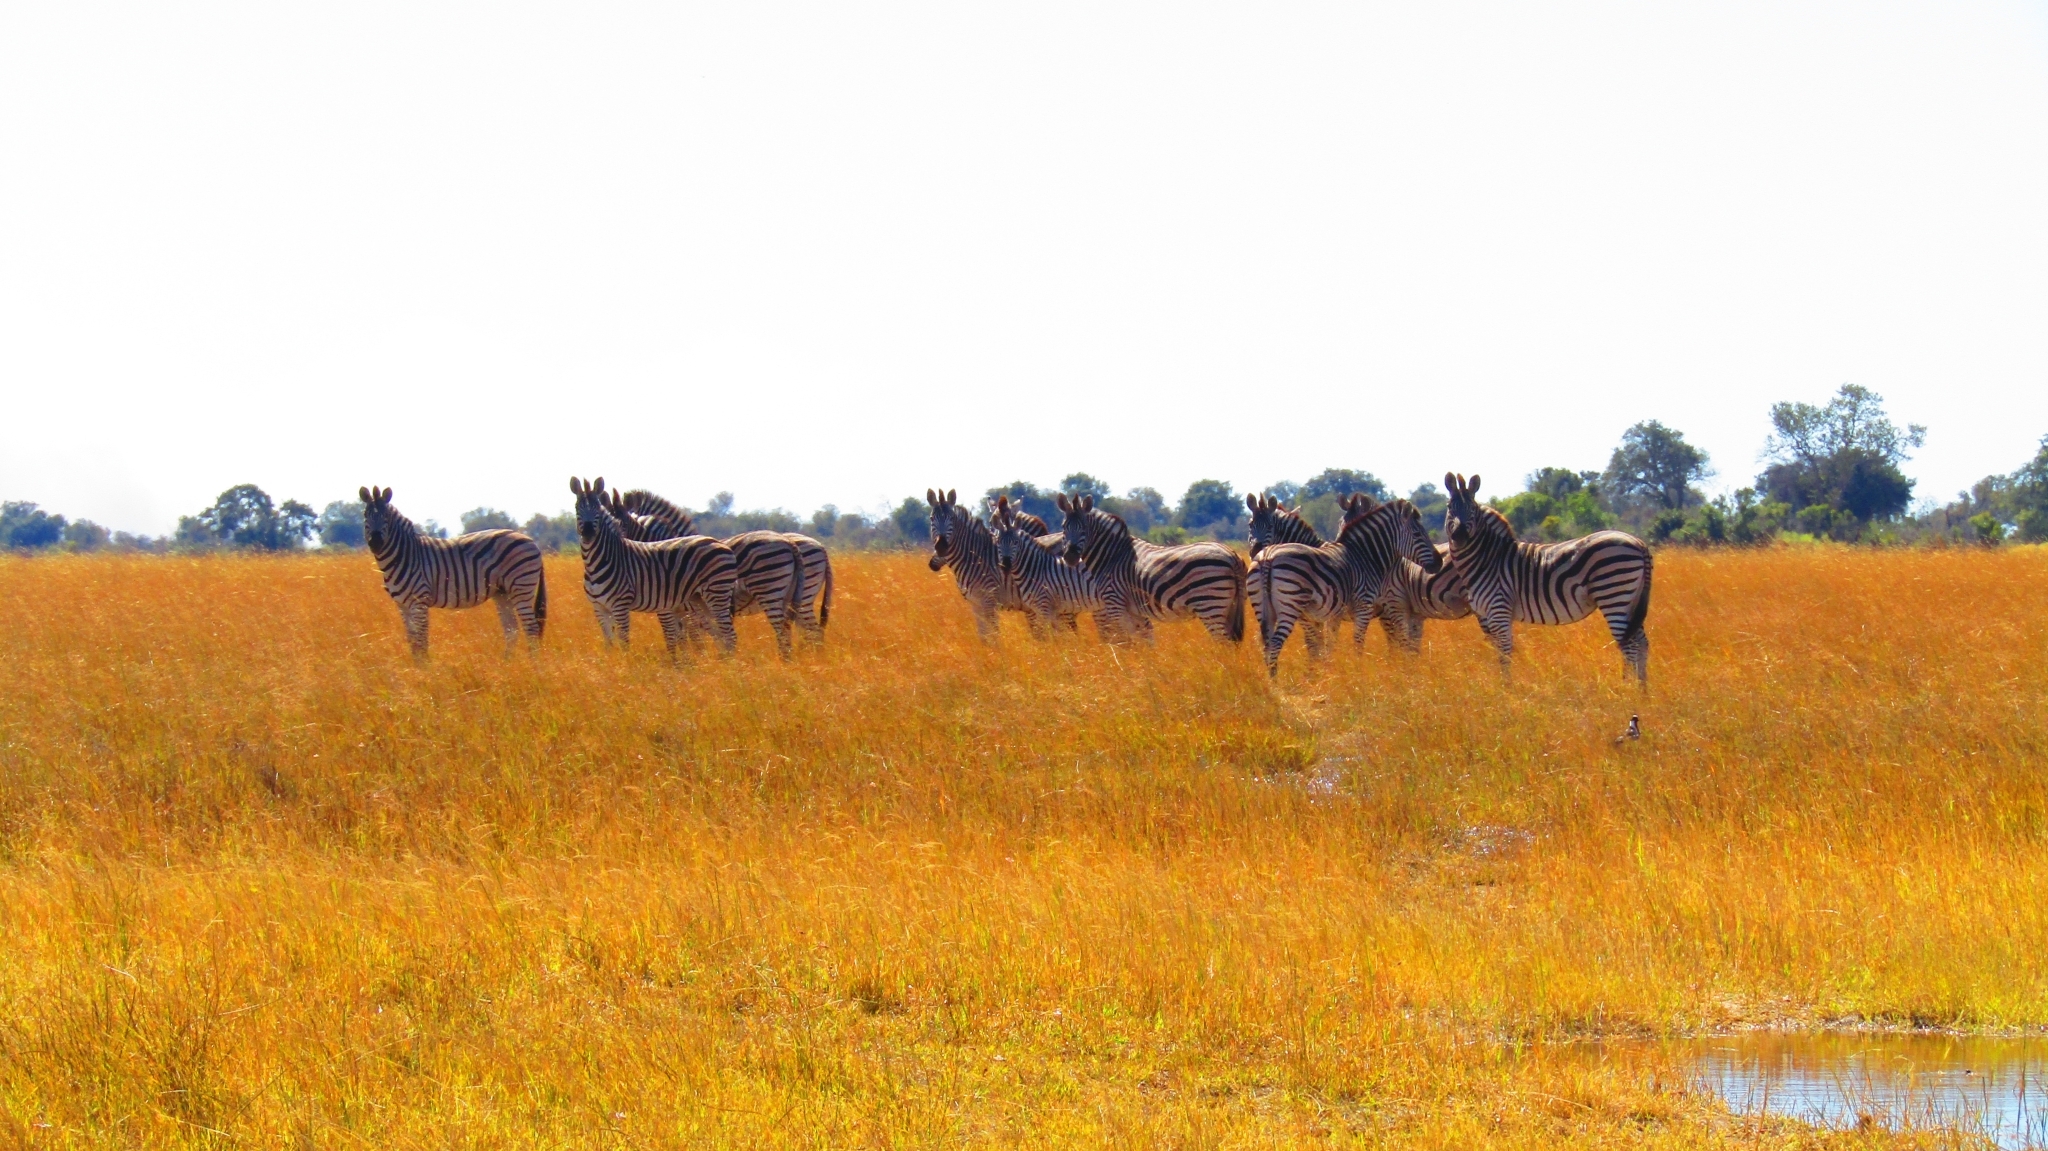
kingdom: Animalia
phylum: Chordata
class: Mammalia
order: Perissodactyla
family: Equidae
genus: Equus
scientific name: Equus quagga
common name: Plains zebra
